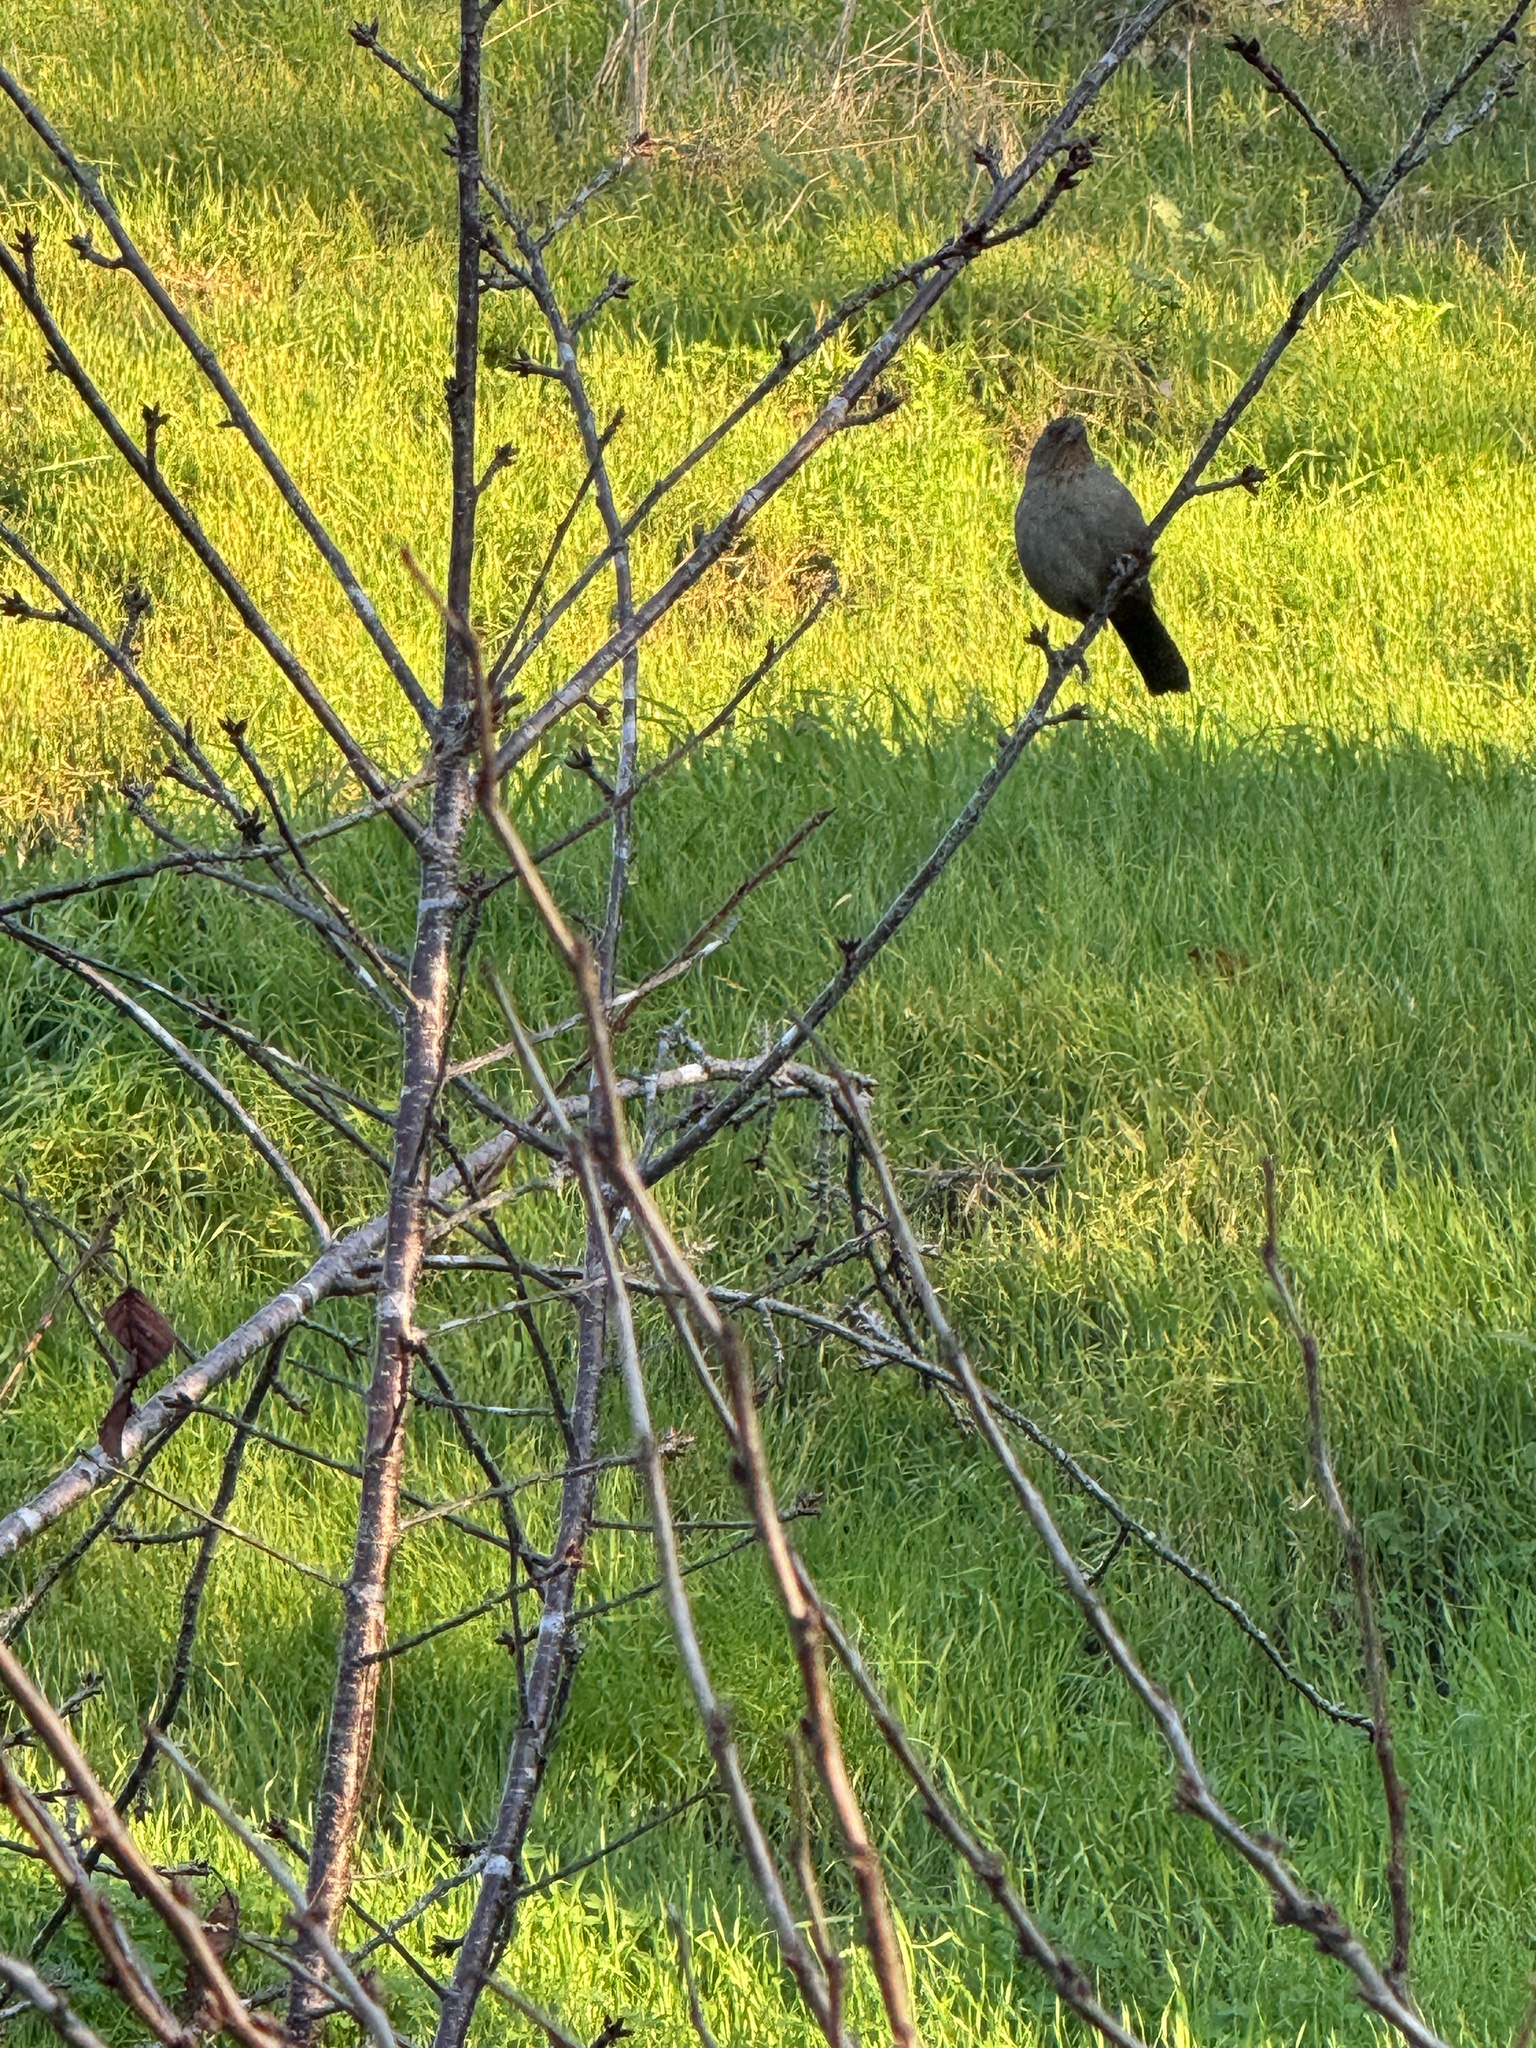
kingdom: Animalia
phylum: Chordata
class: Aves
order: Passeriformes
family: Passerellidae
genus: Melozone
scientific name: Melozone crissalis
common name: California towhee
